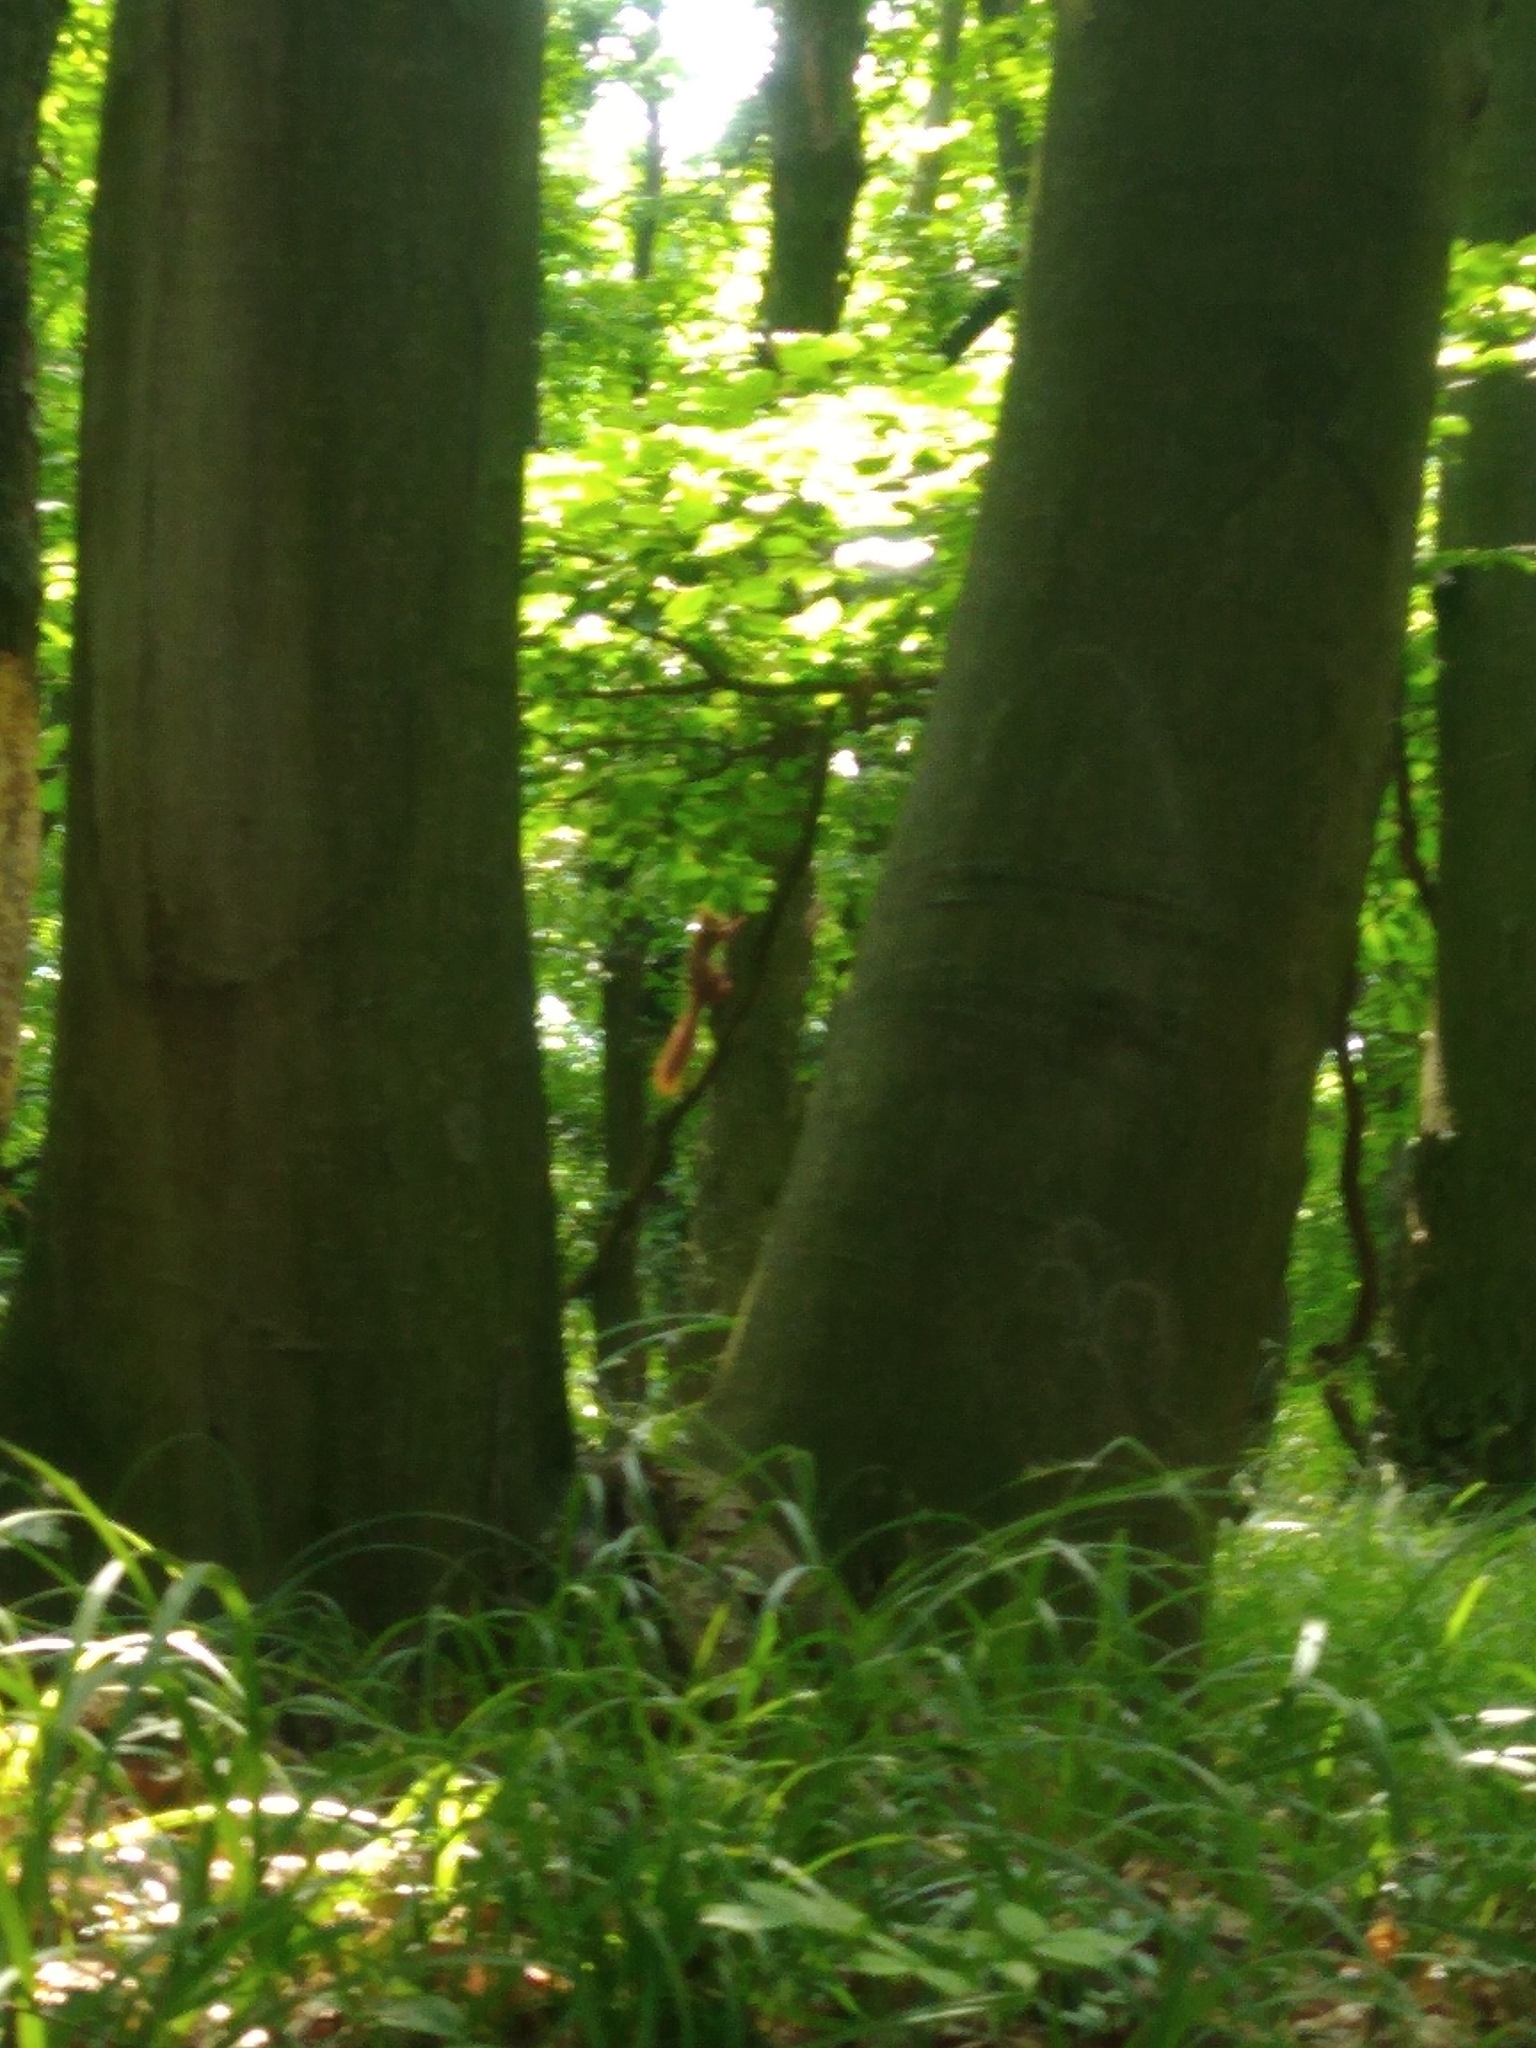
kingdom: Animalia
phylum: Chordata
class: Mammalia
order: Rodentia
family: Sciuridae
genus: Sciurus
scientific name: Sciurus vulgaris
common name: Eurasian red squirrel
